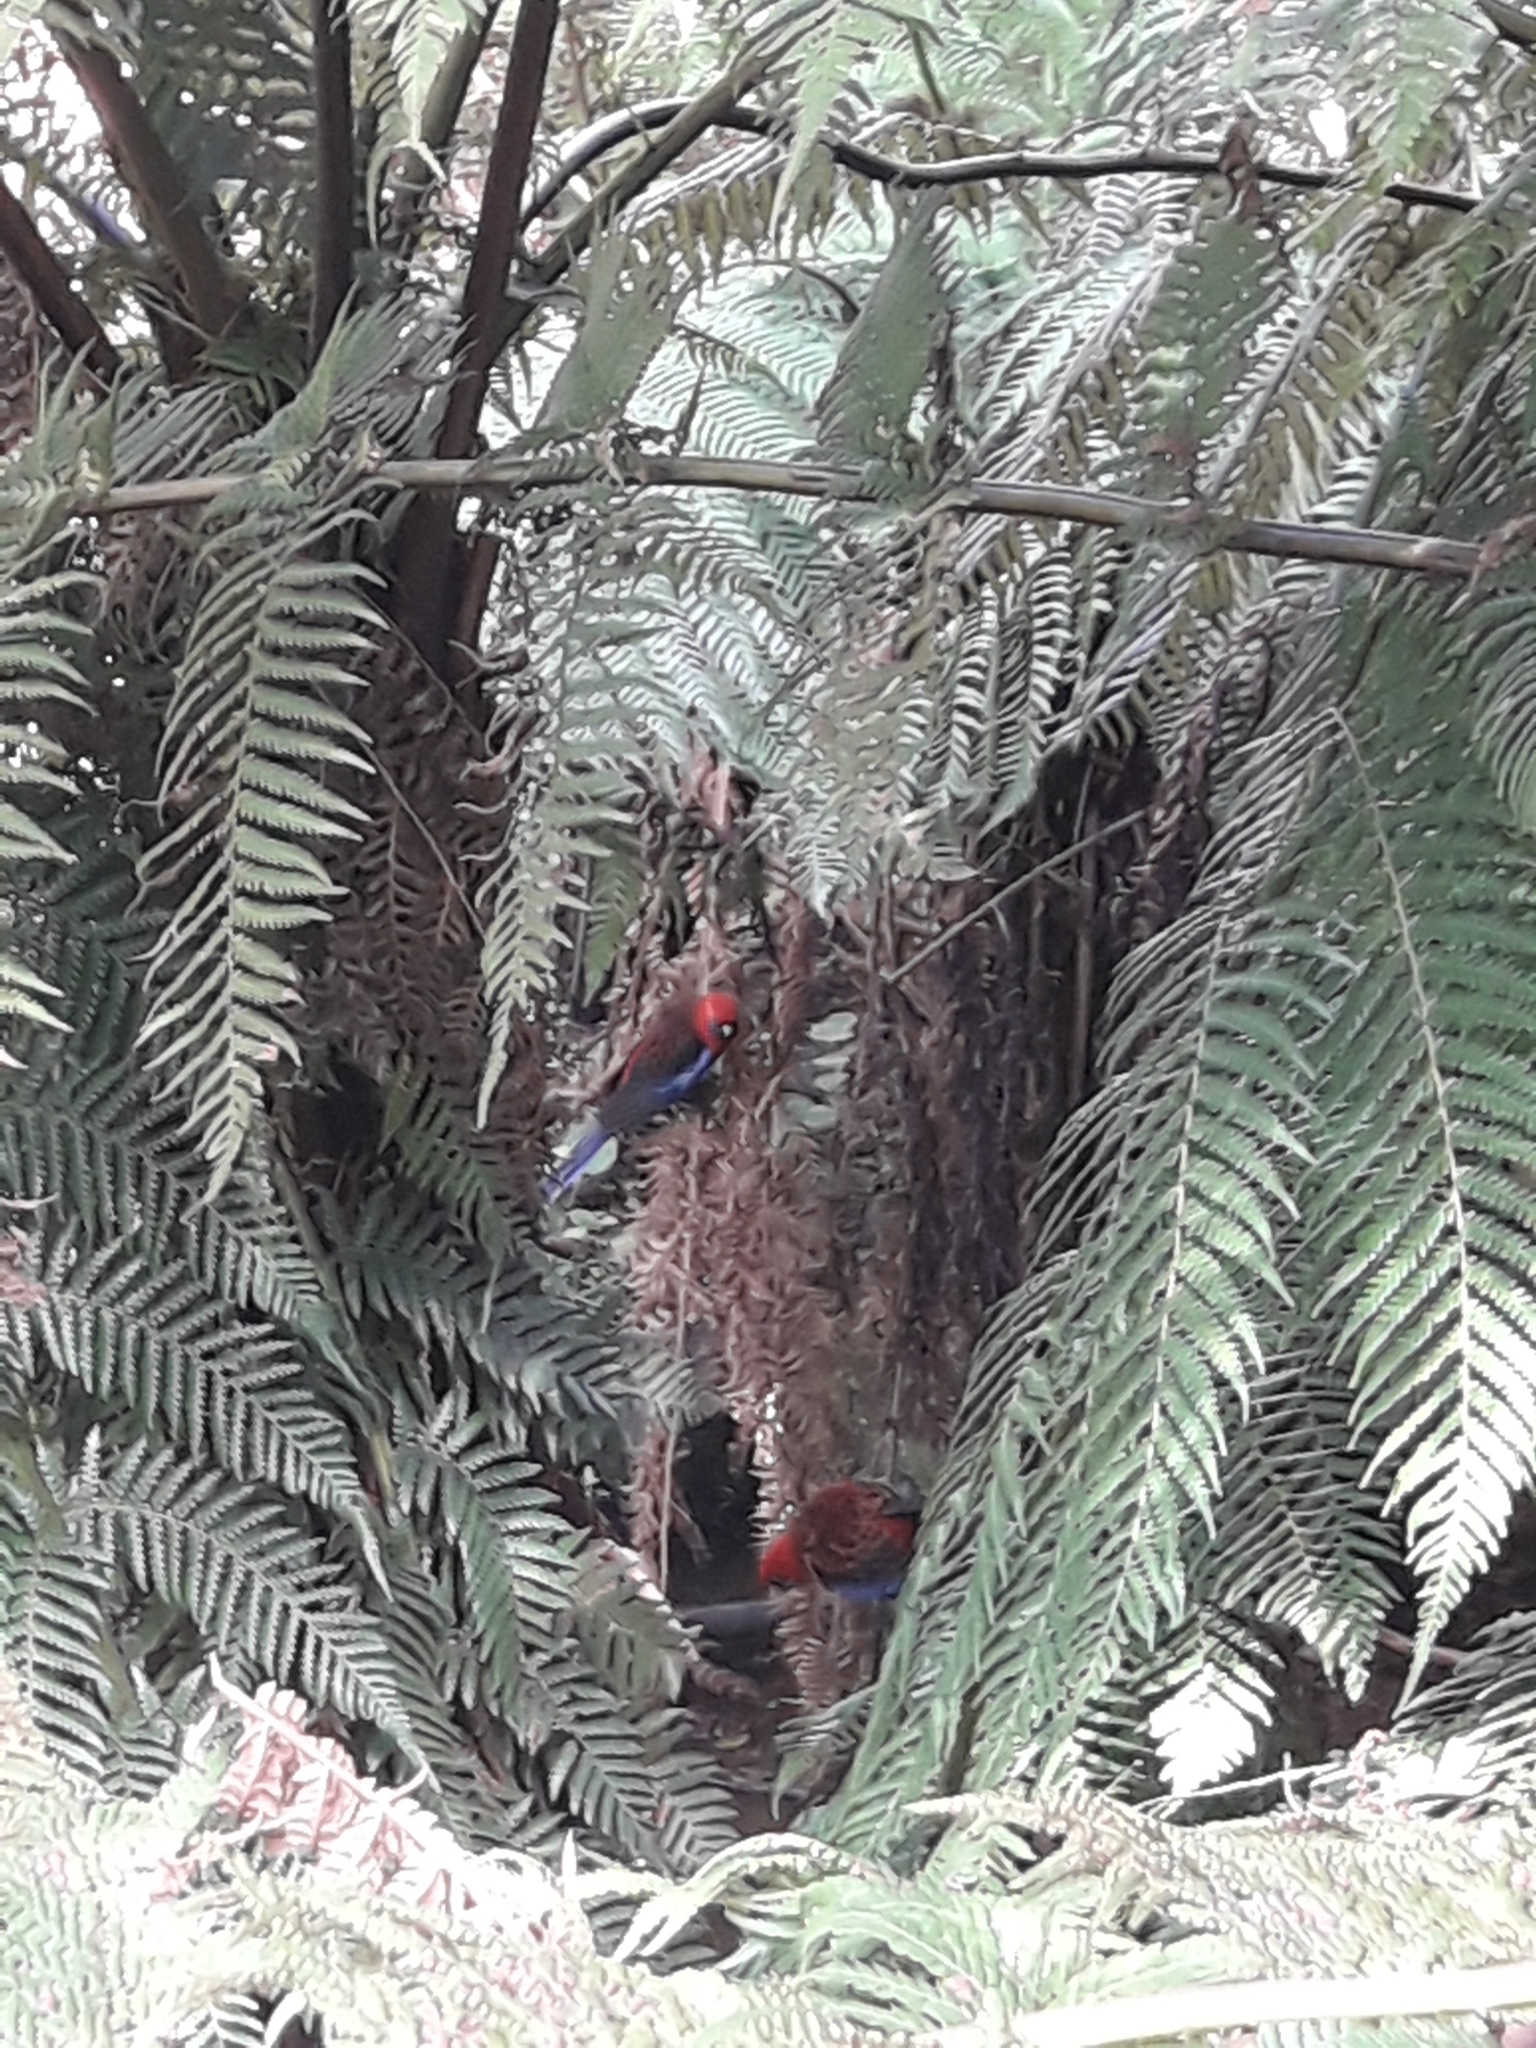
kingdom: Animalia
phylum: Chordata
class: Aves
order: Psittaciformes
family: Psittacidae
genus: Platycercus
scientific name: Platycercus elegans
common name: Crimson rosella
